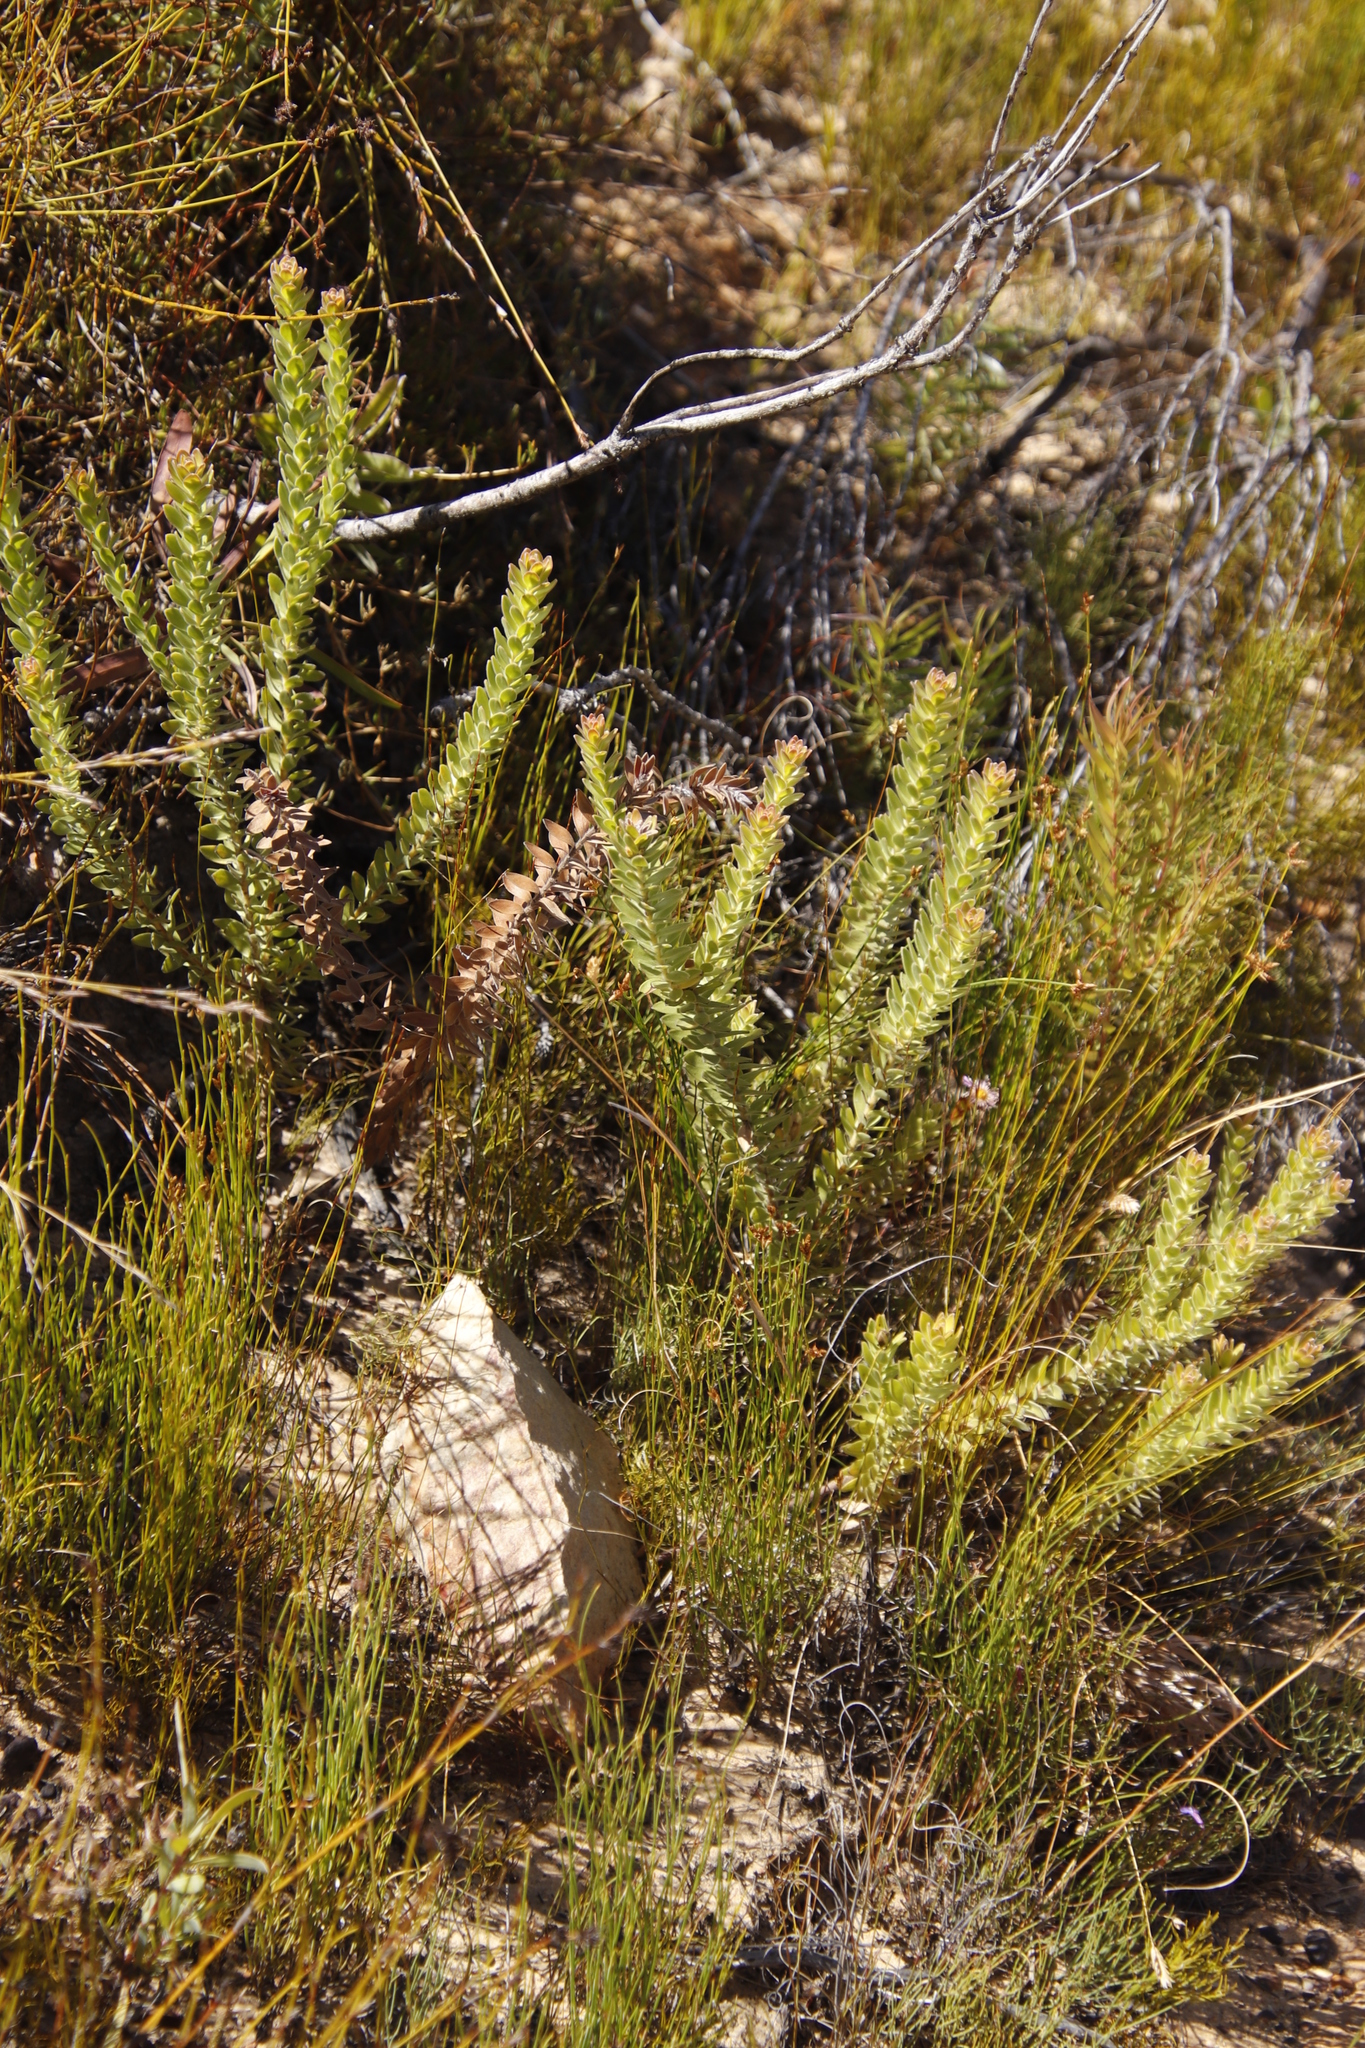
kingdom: Plantae
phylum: Tracheophyta
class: Magnoliopsida
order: Proteales
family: Proteaceae
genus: Diastella
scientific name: Diastella thymelaeoides
